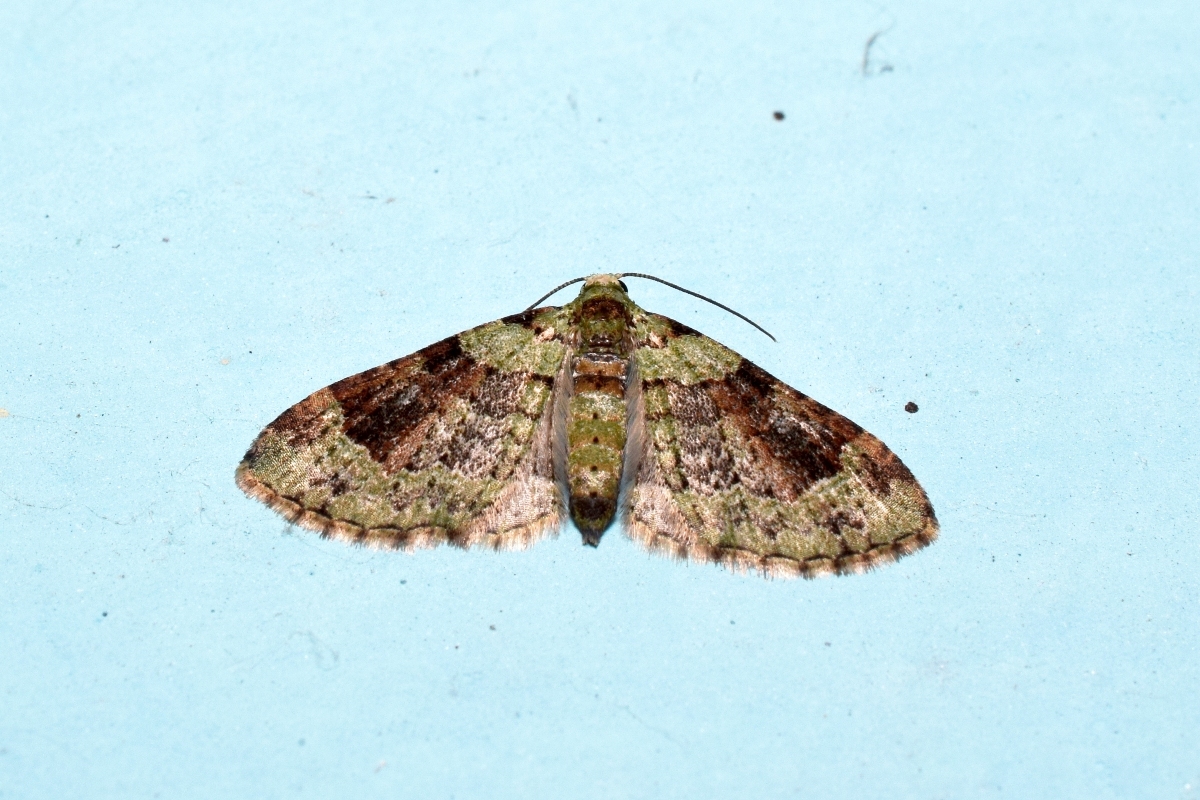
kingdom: Animalia
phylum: Arthropoda
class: Insecta
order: Lepidoptera
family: Geometridae
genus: Euphyia
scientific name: Euphyia viridis
